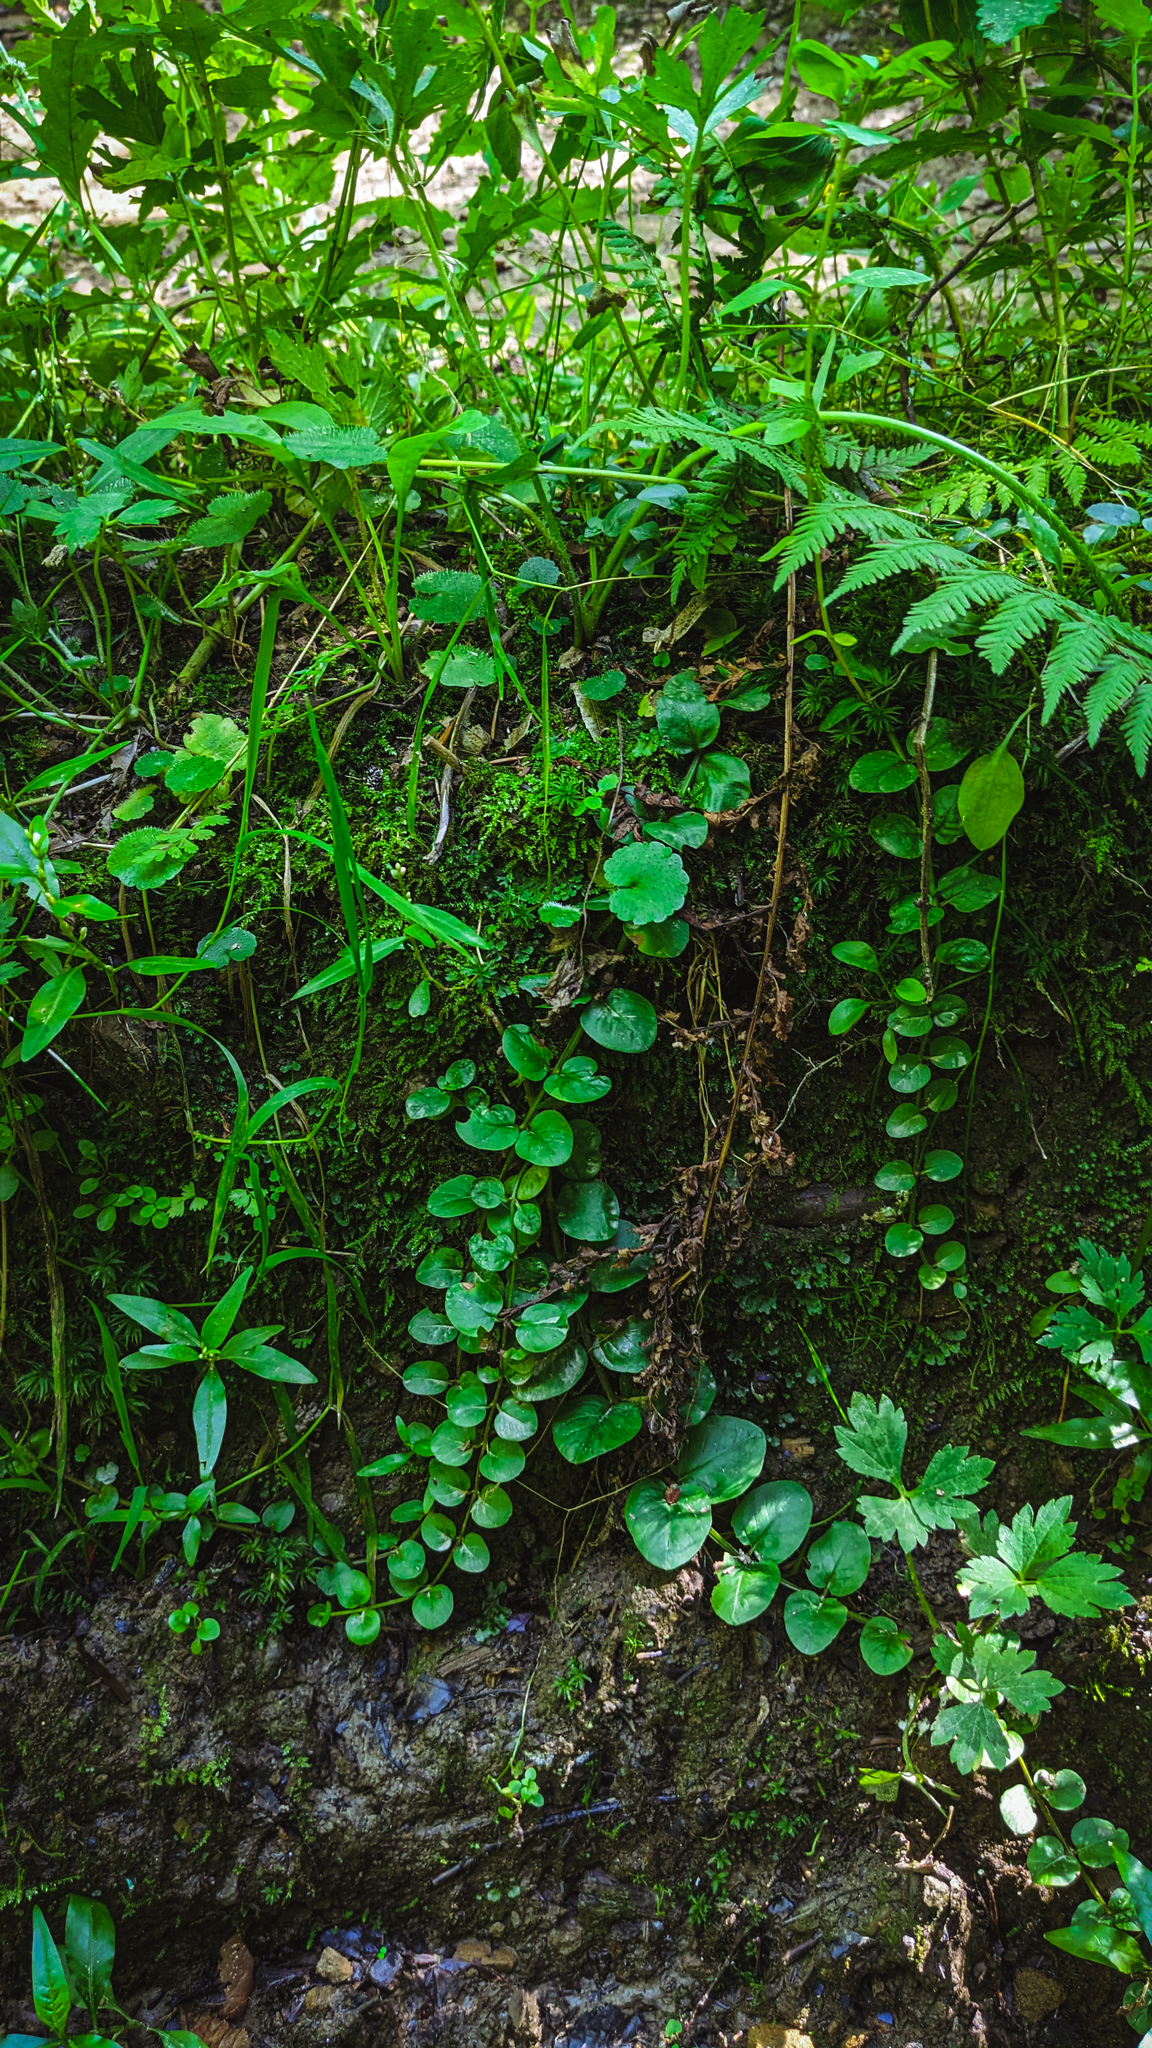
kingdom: Plantae
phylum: Tracheophyta
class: Magnoliopsida
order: Ericales
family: Primulaceae
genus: Lysimachia
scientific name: Lysimachia nummularia
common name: Moneywort
